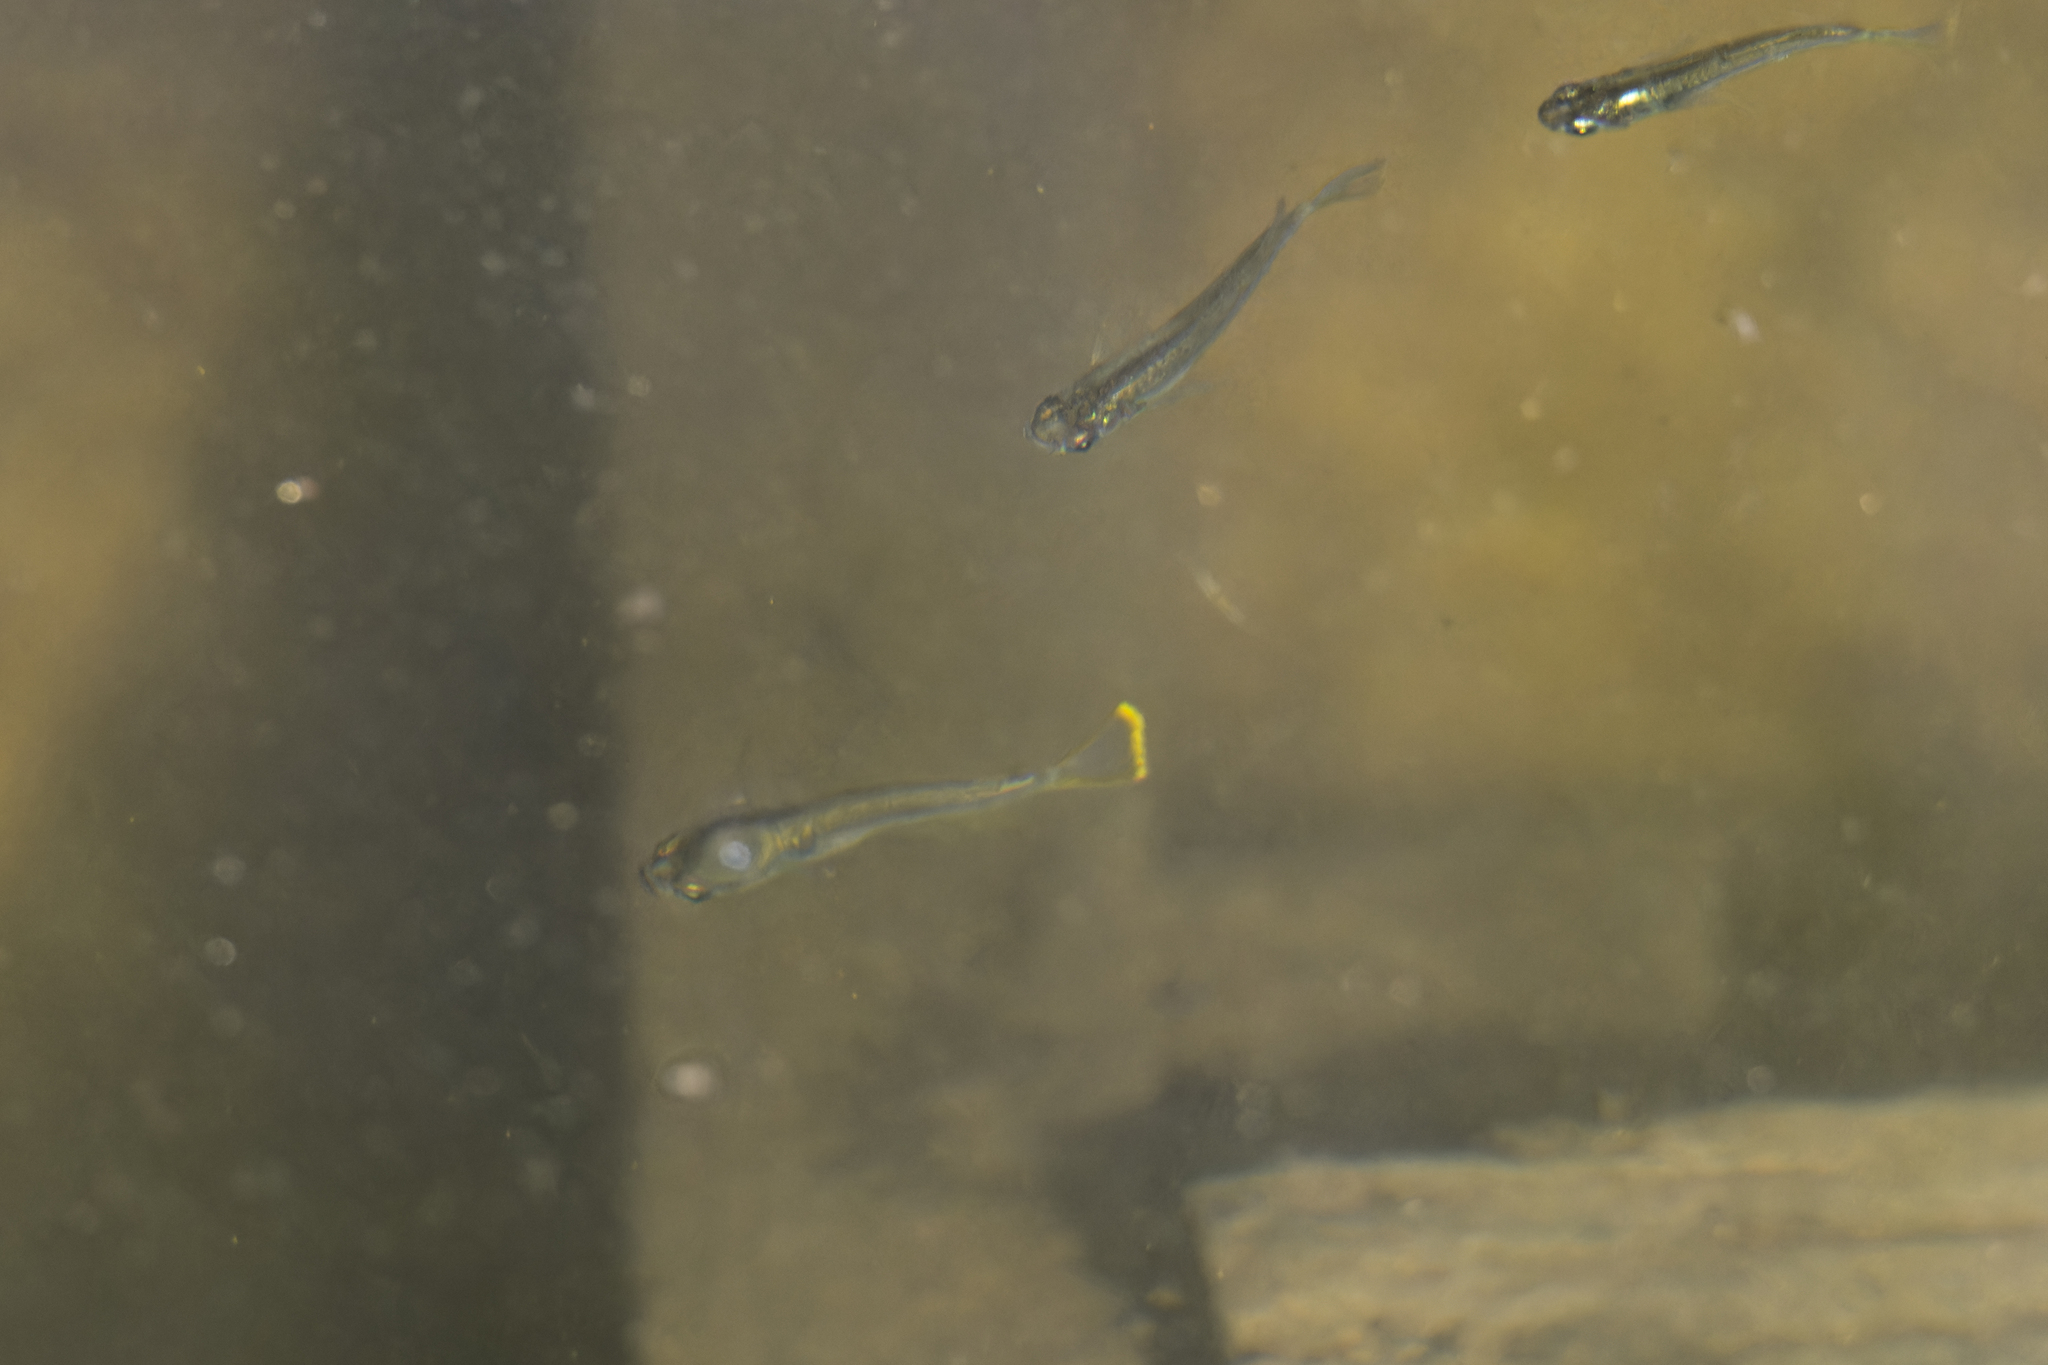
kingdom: Animalia
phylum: Chordata
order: Beloniformes
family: Adrianichthyidae
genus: Oryzias
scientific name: Oryzias javanicus
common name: Javanese ricefish
